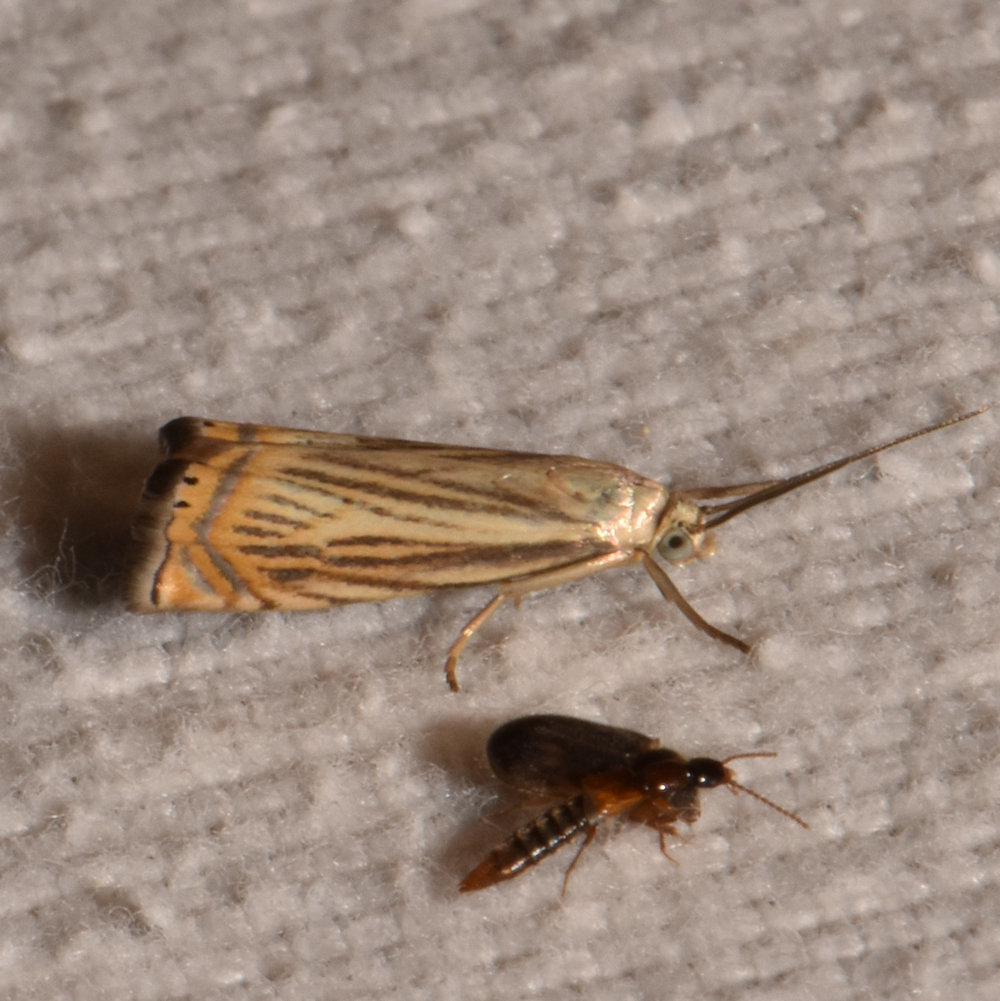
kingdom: Animalia
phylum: Arthropoda
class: Insecta
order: Lepidoptera
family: Crambidae
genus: Chrysoteuchia
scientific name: Chrysoteuchia topiarius
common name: Topiary grass-veneer
